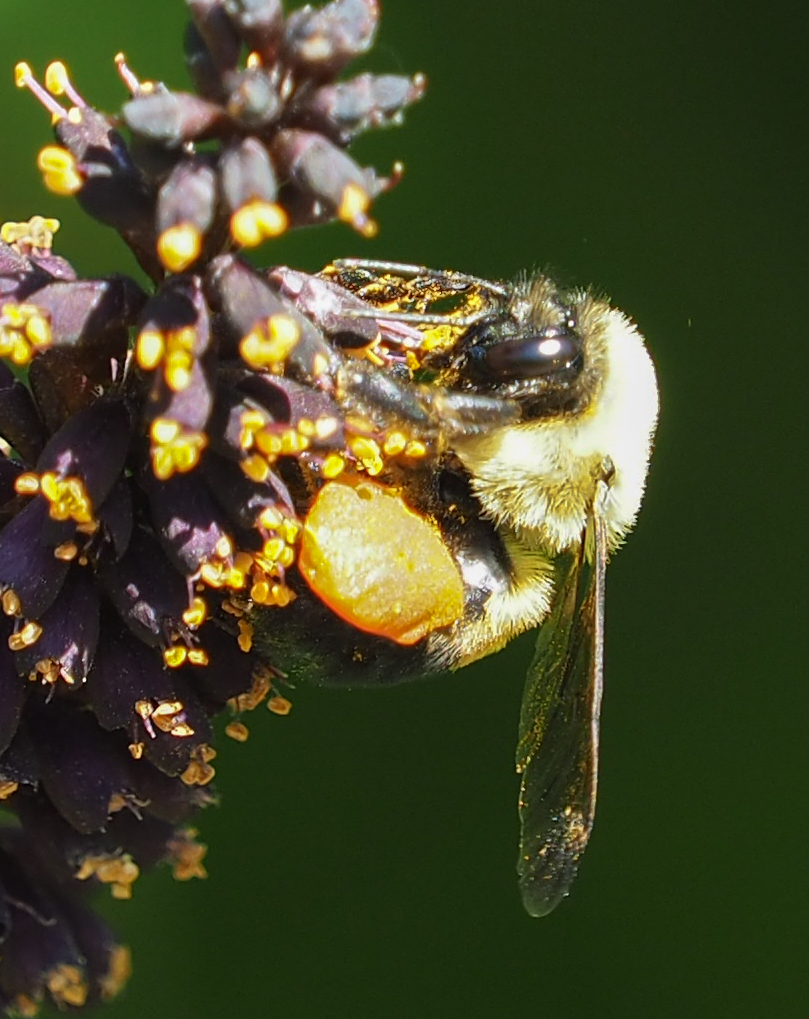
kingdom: Animalia
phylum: Arthropoda
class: Insecta
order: Hymenoptera
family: Apidae
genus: Bombus
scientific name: Bombus griseocollis
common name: Brown-belted bumble bee
